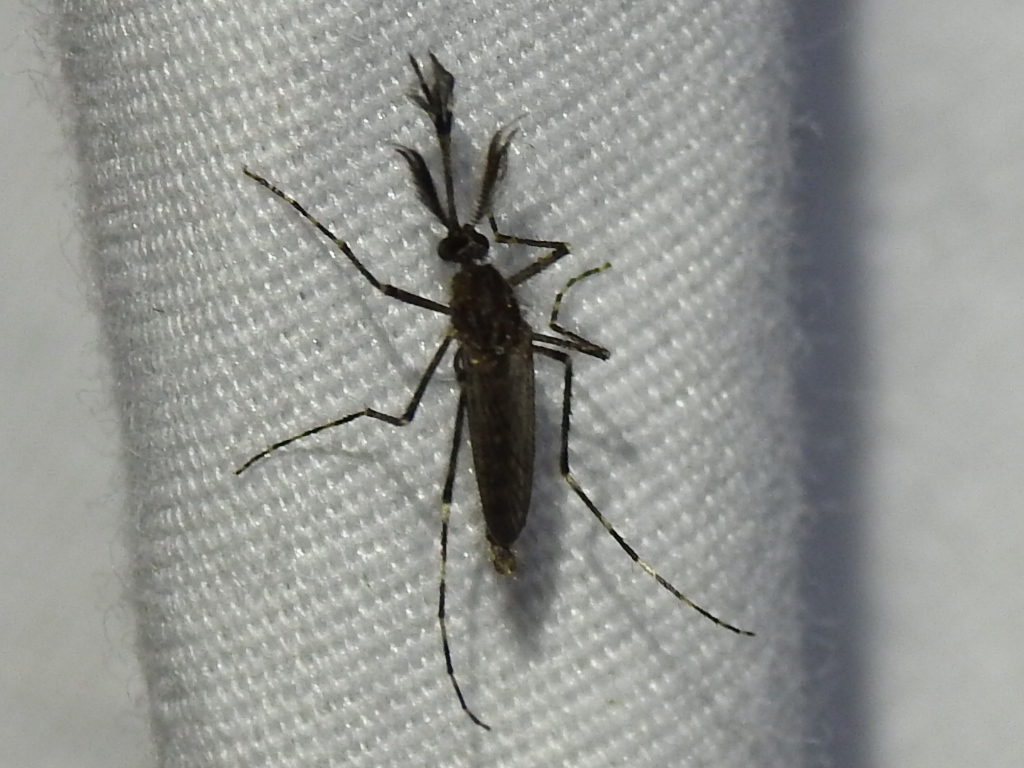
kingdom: Animalia
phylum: Arthropoda
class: Insecta
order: Diptera
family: Culicidae
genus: Coquillettidia
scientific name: Coquillettidia perturbans
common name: Cattail mosquito
